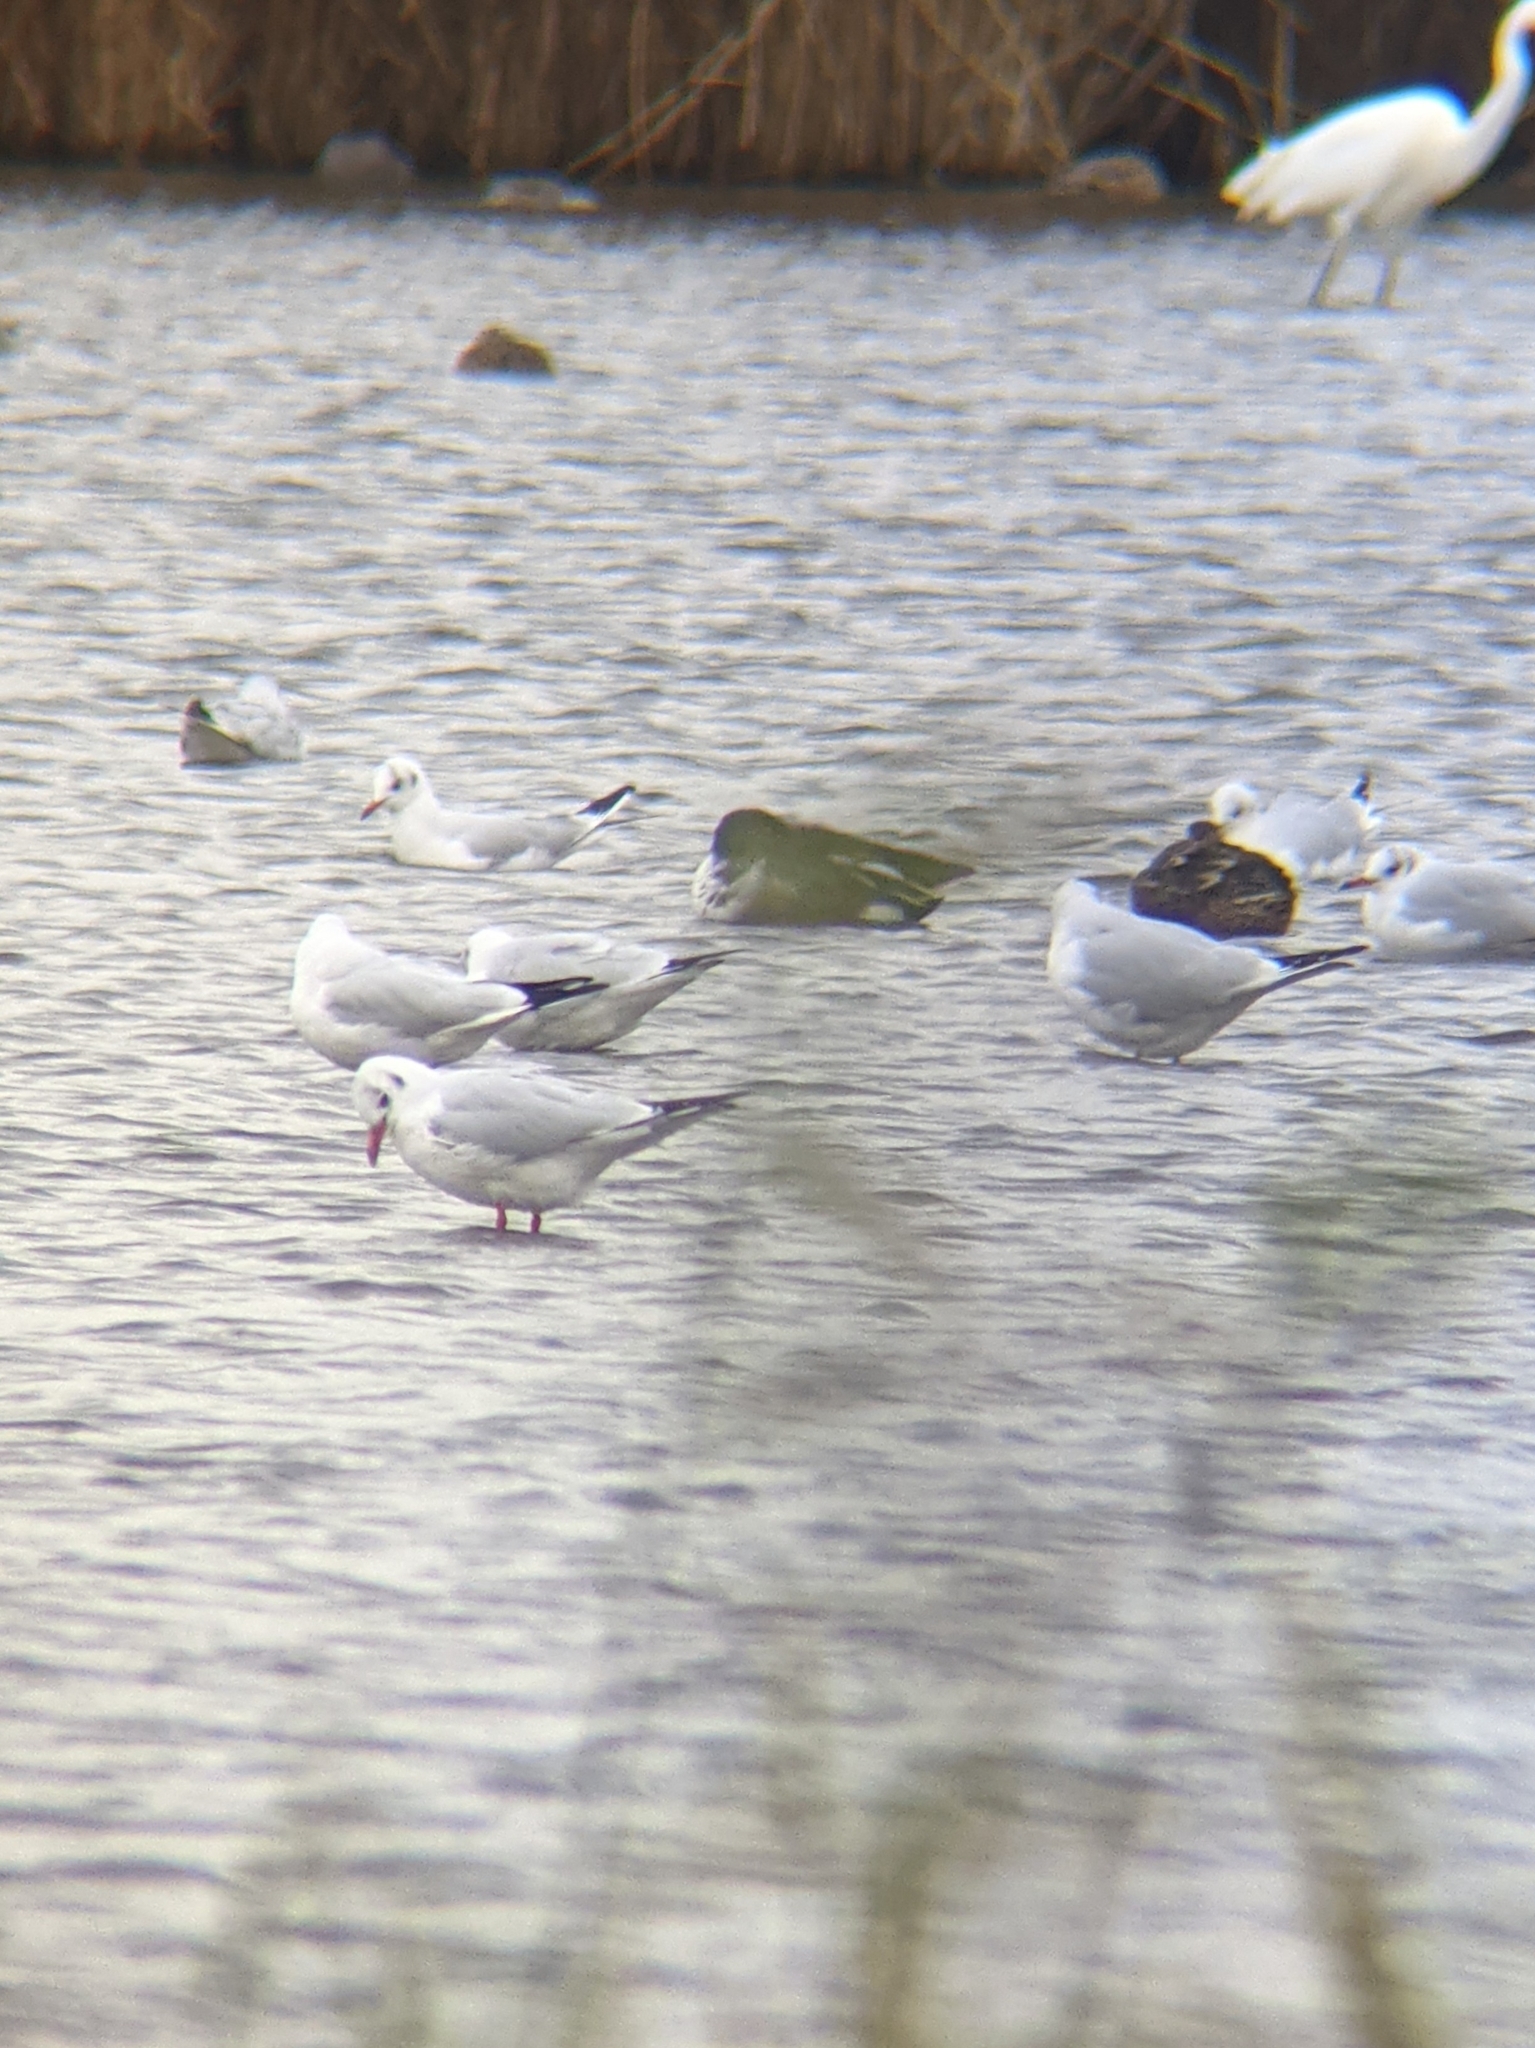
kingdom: Animalia
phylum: Chordata
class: Aves
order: Charadriiformes
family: Laridae
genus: Chroicocephalus
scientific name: Chroicocephalus ridibundus
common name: Black-headed gull
